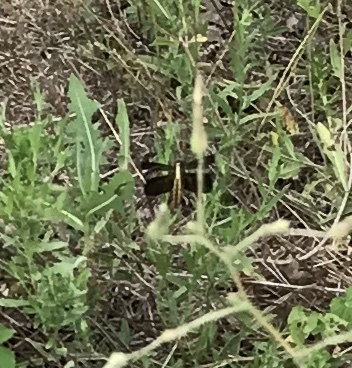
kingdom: Animalia
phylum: Arthropoda
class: Insecta
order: Odonata
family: Libellulidae
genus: Libellula
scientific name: Libellula luctuosa
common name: Widow skimmer
